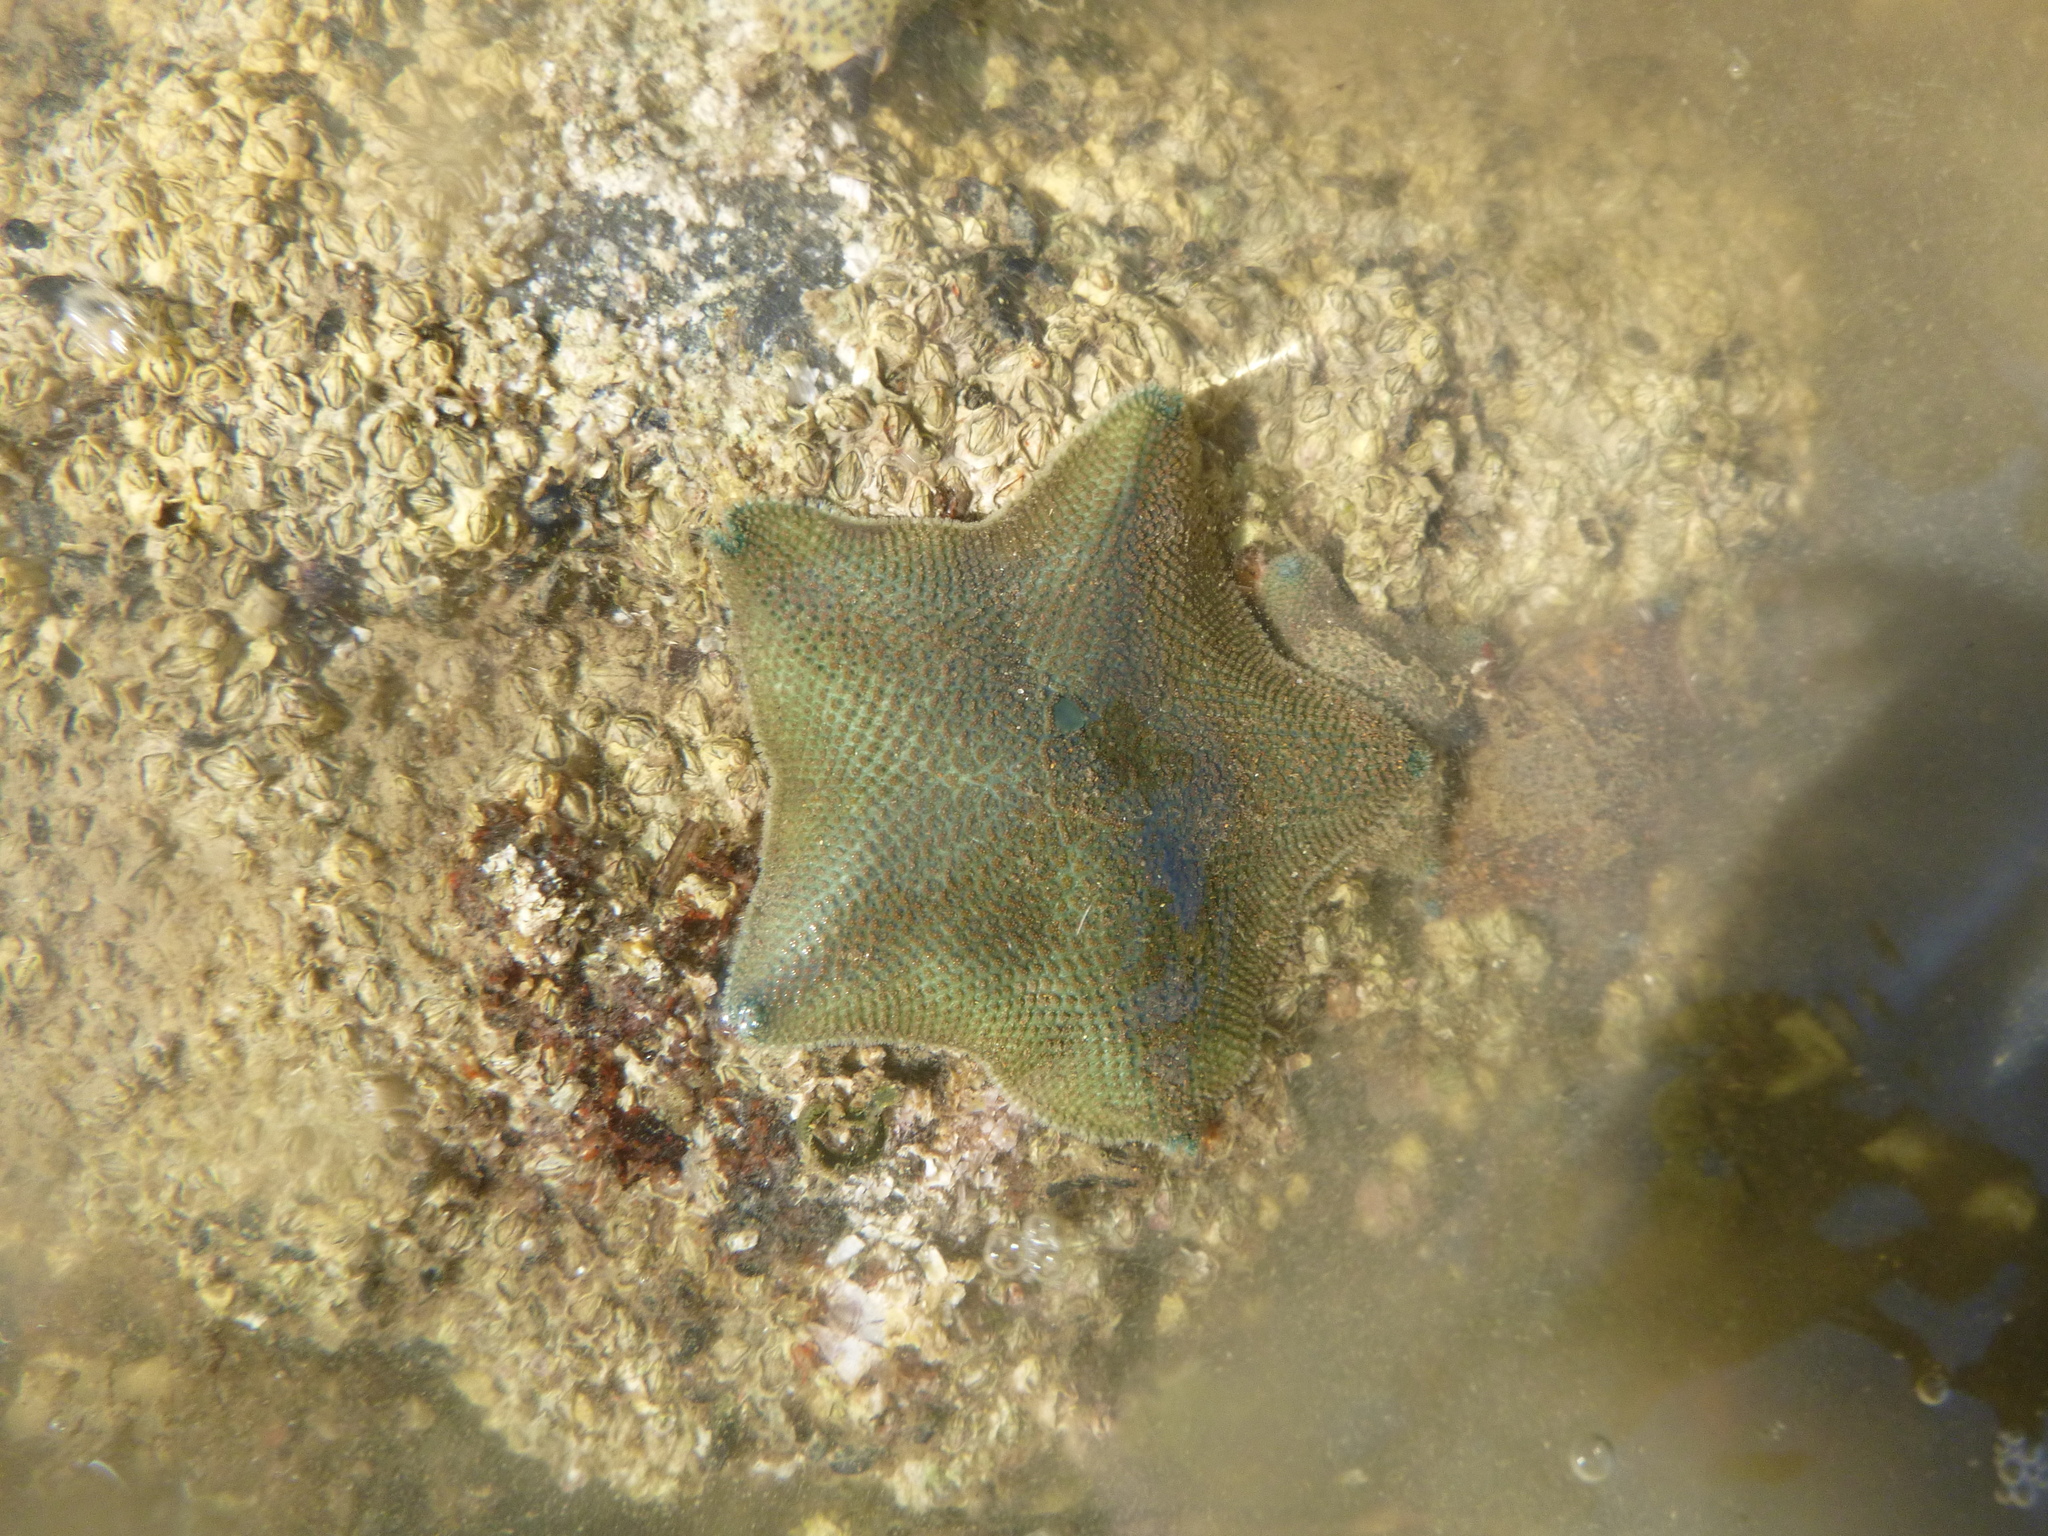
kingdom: Animalia
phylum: Echinodermata
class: Asteroidea
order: Valvatida
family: Asterinidae
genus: Patiriella
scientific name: Patiriella regularis
